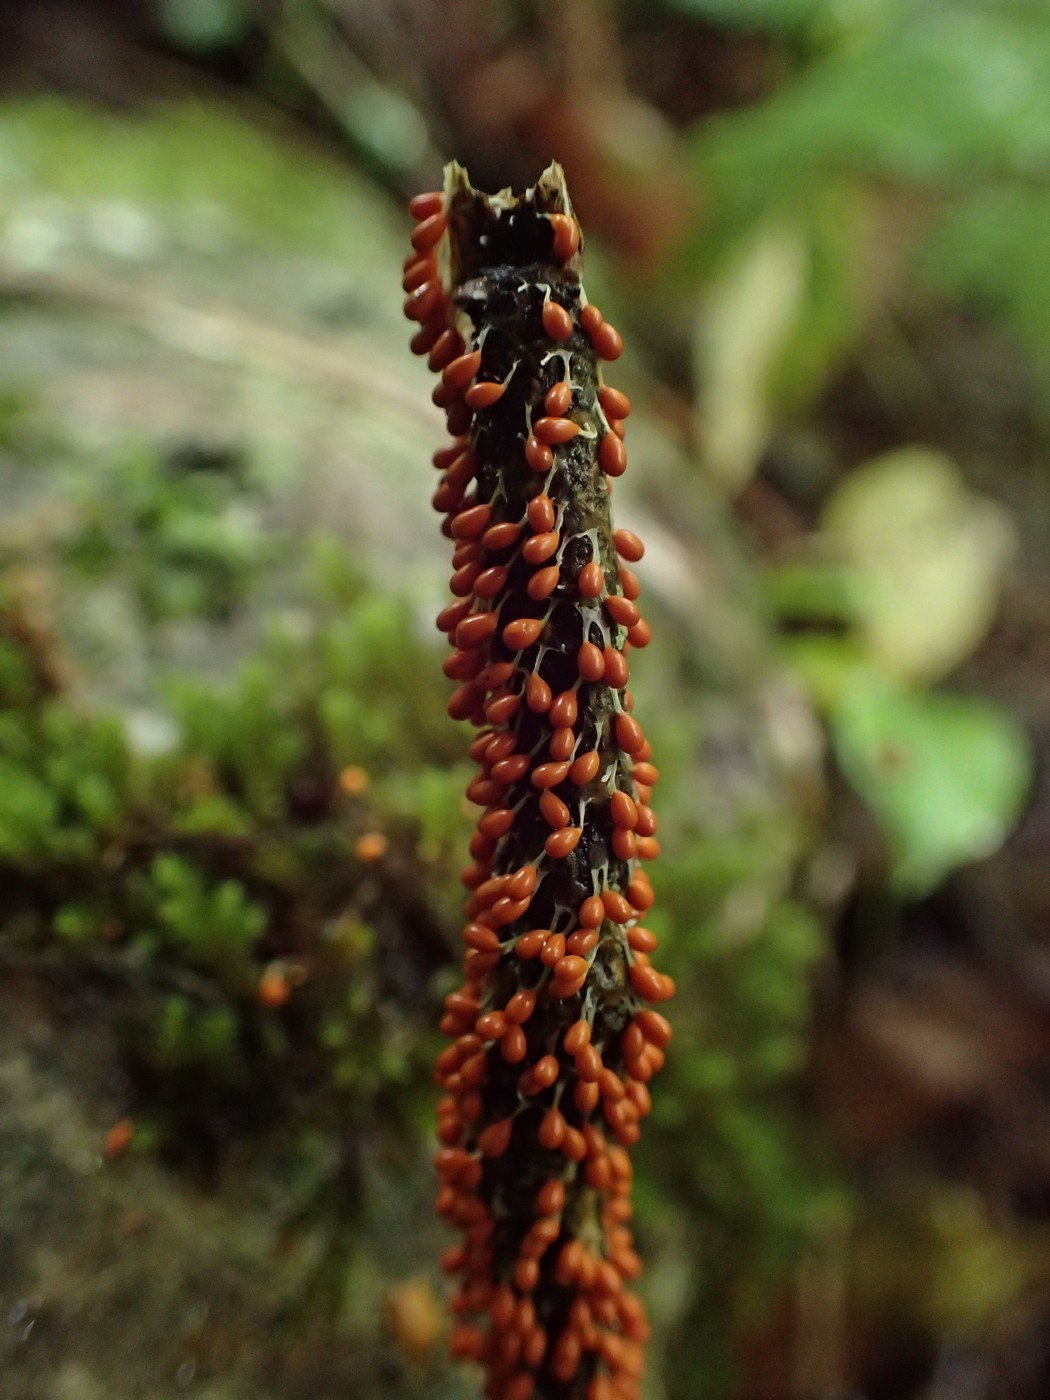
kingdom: Protozoa
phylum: Mycetozoa
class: Myxomycetes
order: Physarales
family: Physaraceae
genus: Leocarpus
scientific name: Leocarpus fragilis
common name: Insect-egg slime
